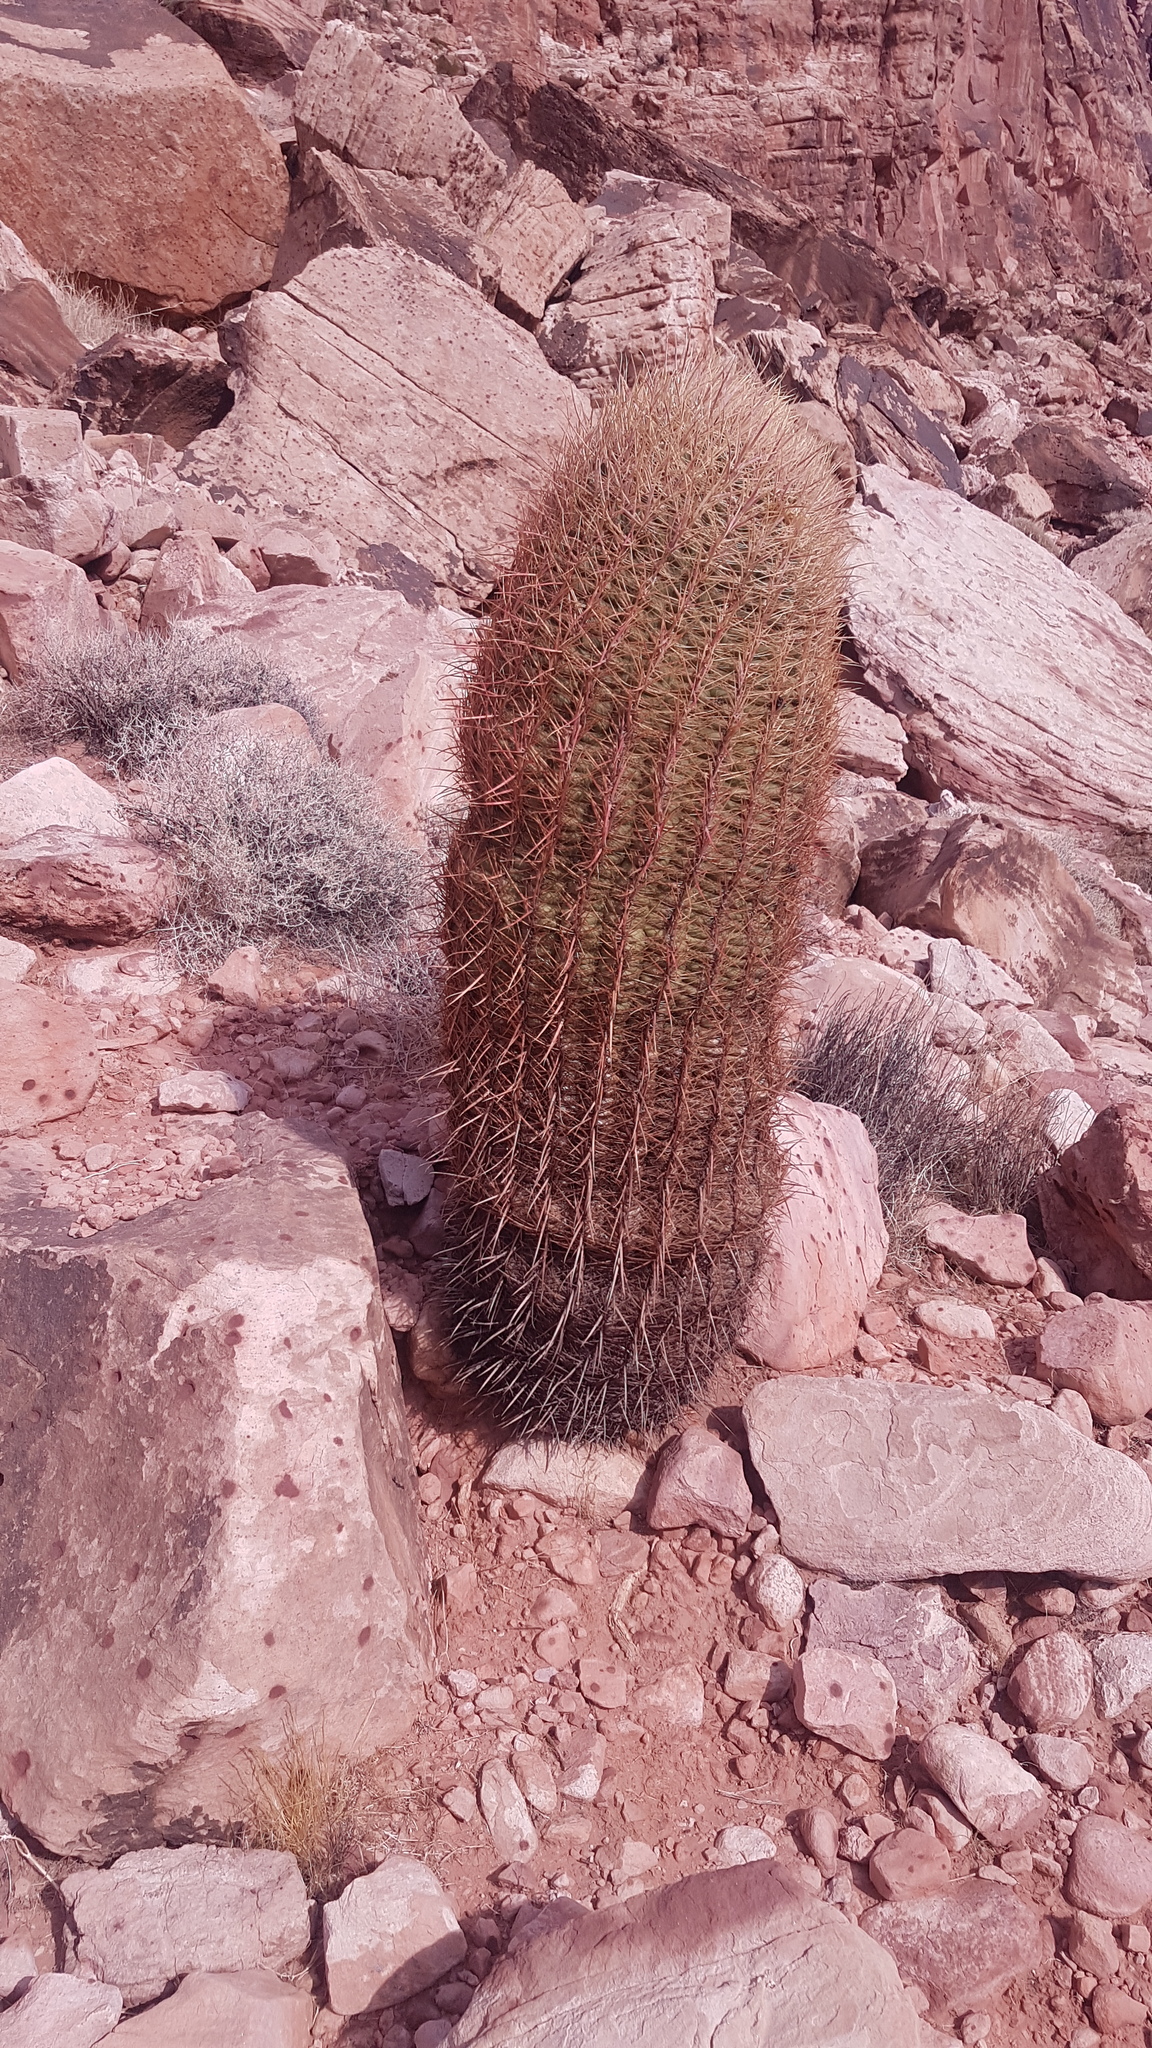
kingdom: Plantae
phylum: Tracheophyta
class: Magnoliopsida
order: Caryophyllales
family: Cactaceae
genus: Ferocactus
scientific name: Ferocactus cylindraceus
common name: California barrel cactus
